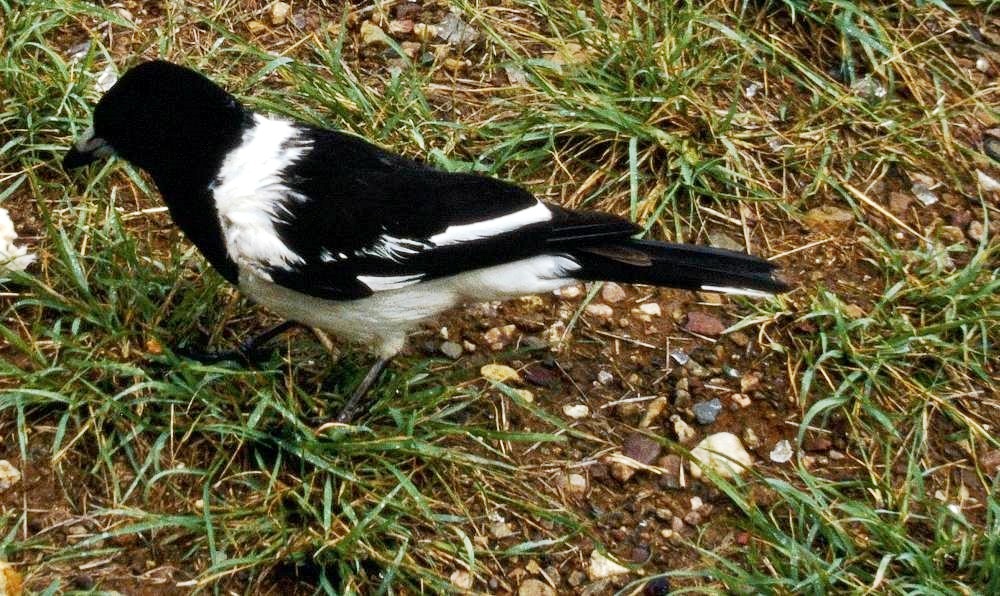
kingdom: Animalia
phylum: Chordata
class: Aves
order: Passeriformes
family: Cracticidae
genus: Cracticus
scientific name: Cracticus nigrogularis
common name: Pied butcherbird
